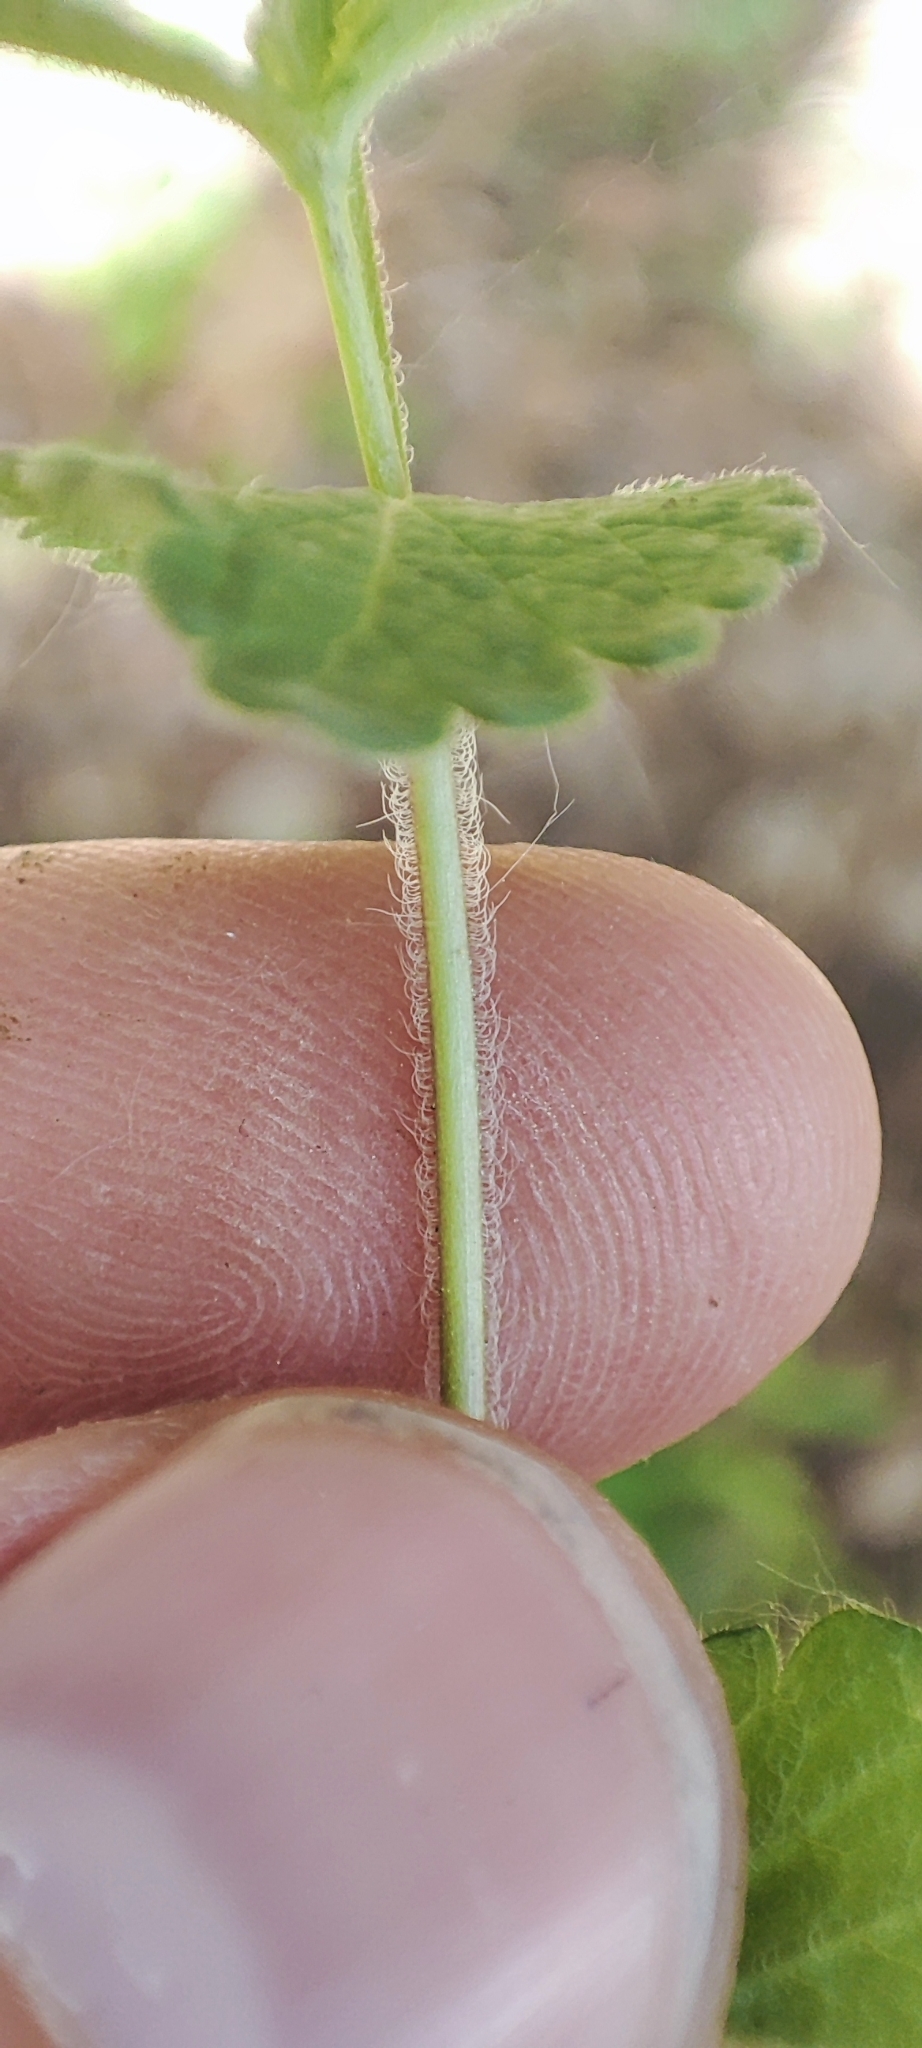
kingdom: Plantae
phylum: Tracheophyta
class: Magnoliopsida
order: Lamiales
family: Plantaginaceae
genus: Veronica
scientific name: Veronica chamaedrys
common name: Germander speedwell
